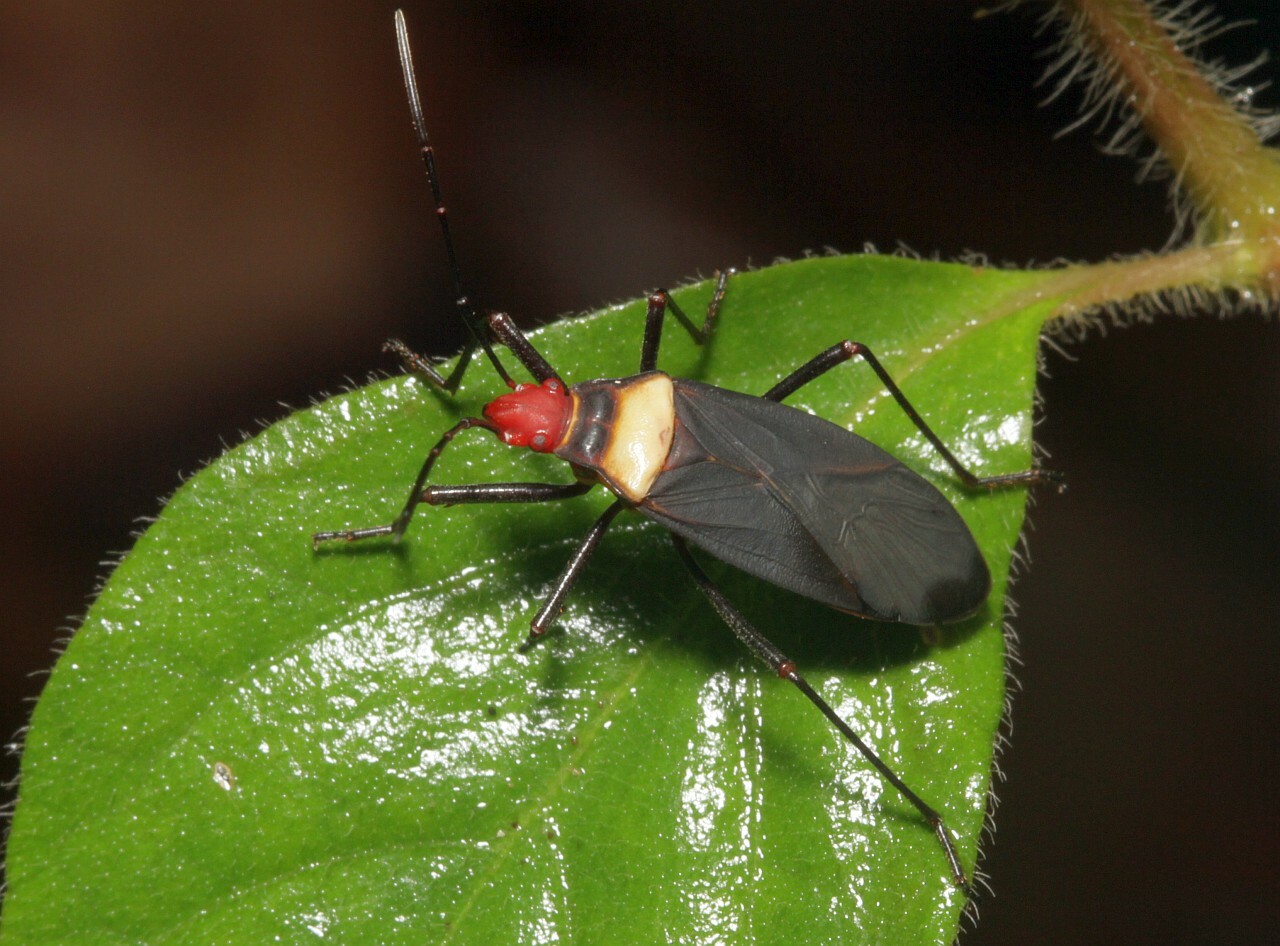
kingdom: Animalia
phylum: Arthropoda
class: Insecta
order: Hemiptera
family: Pyrrhocoridae
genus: Dysdercus
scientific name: Dysdercus
